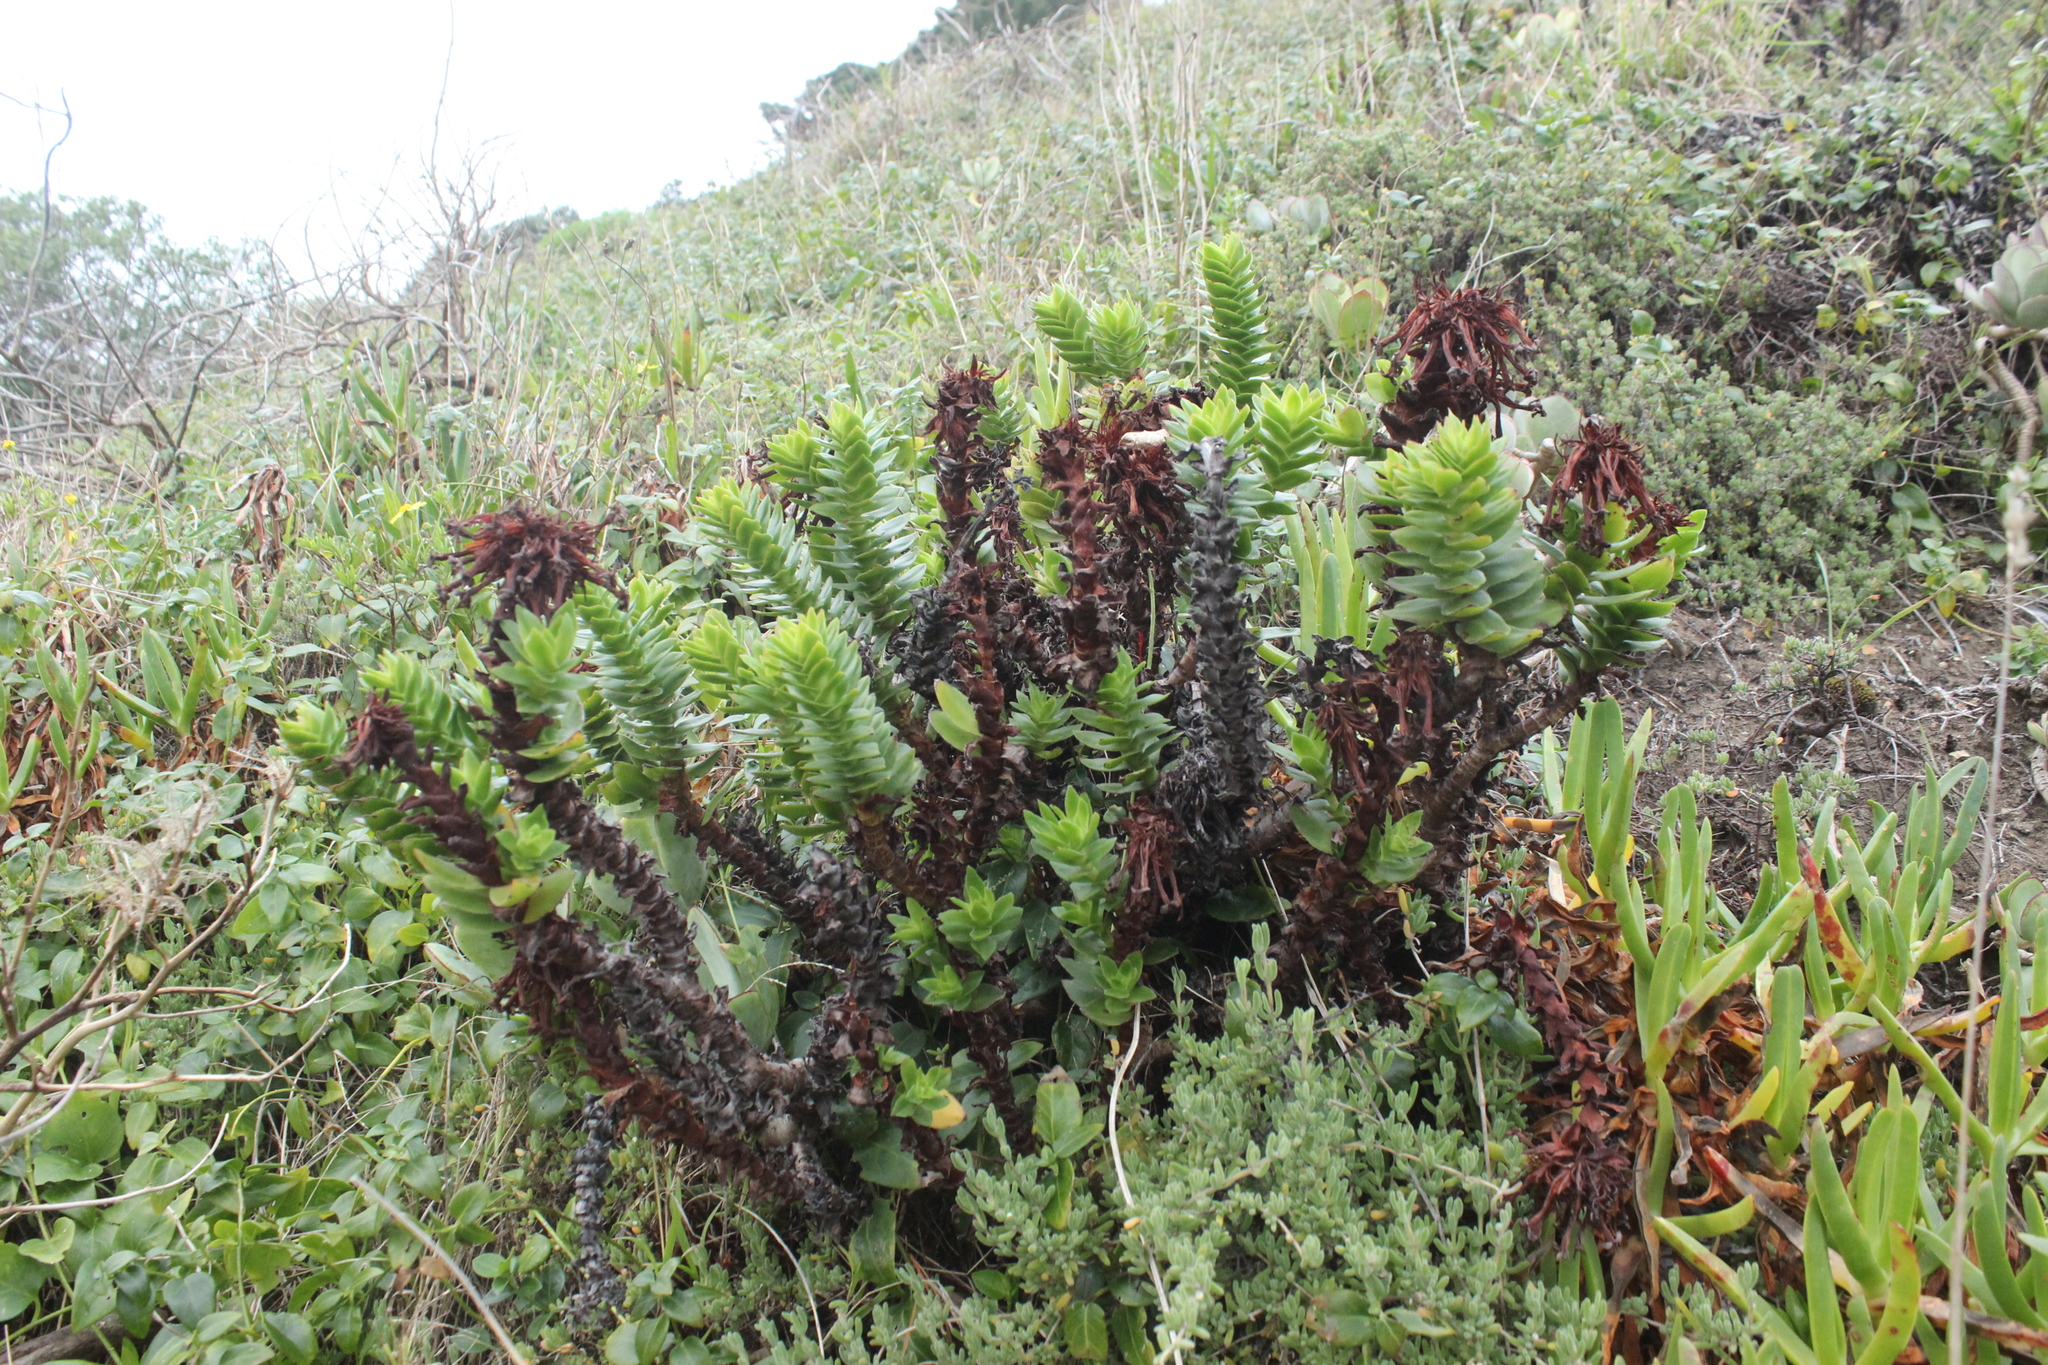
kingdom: Plantae
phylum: Tracheophyta
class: Magnoliopsida
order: Saxifragales
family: Crassulaceae
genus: Crassula
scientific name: Crassula coccinea
